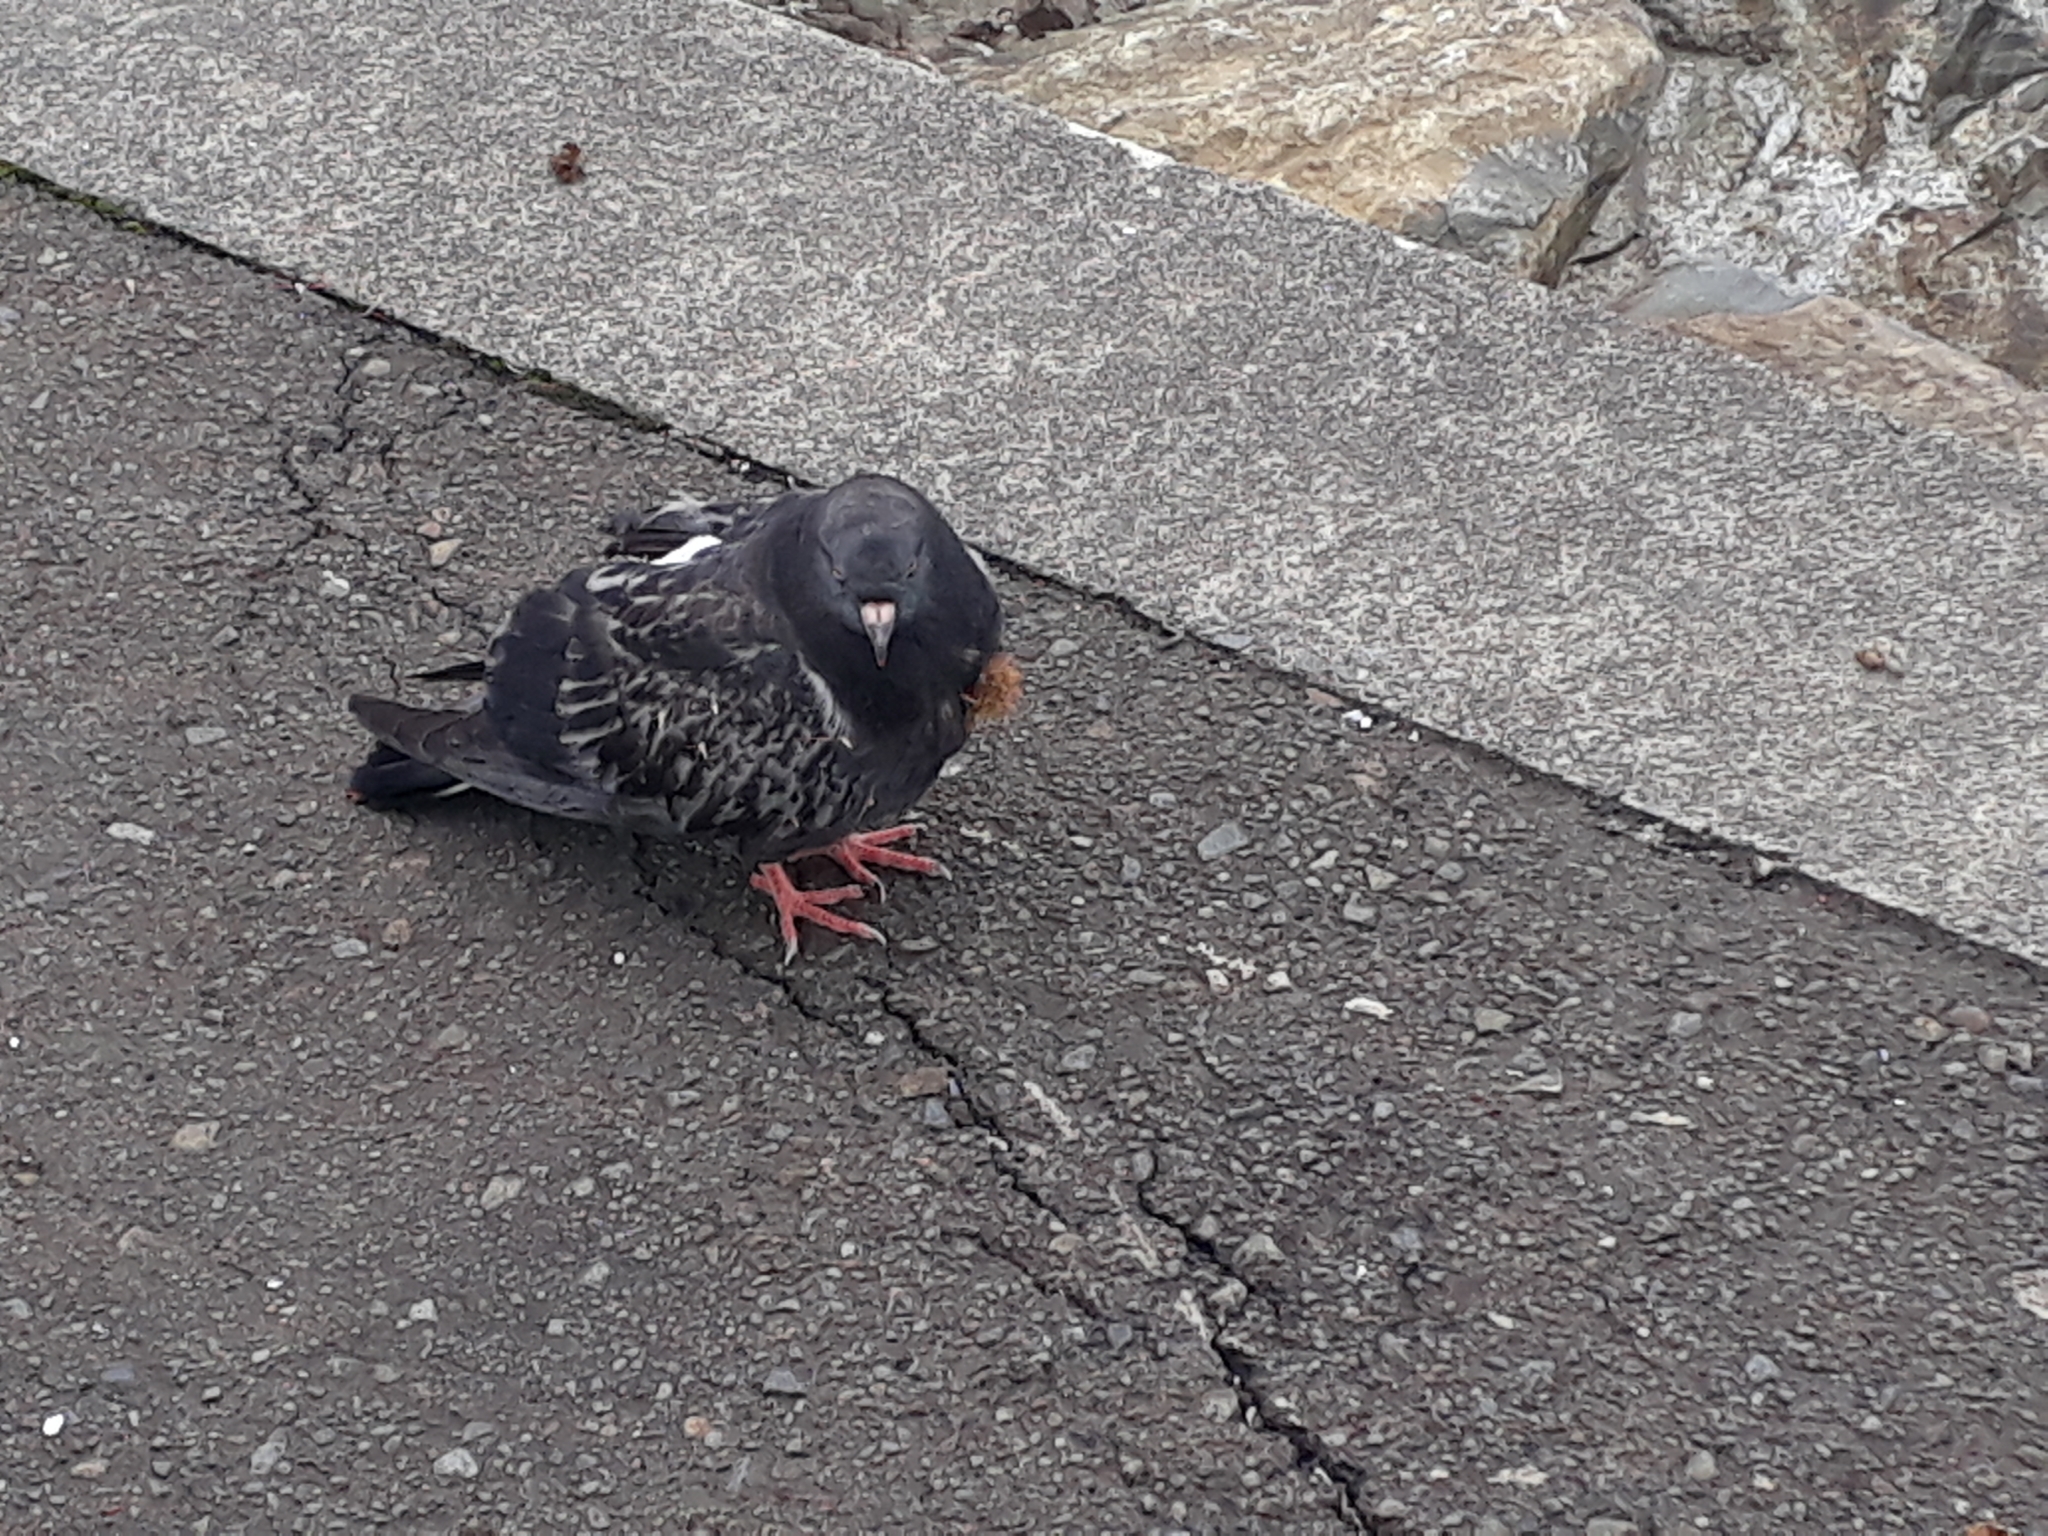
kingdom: Plantae
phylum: Tracheophyta
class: Magnoliopsida
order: Rosales
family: Rosaceae
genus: Acaena
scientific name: Acaena
